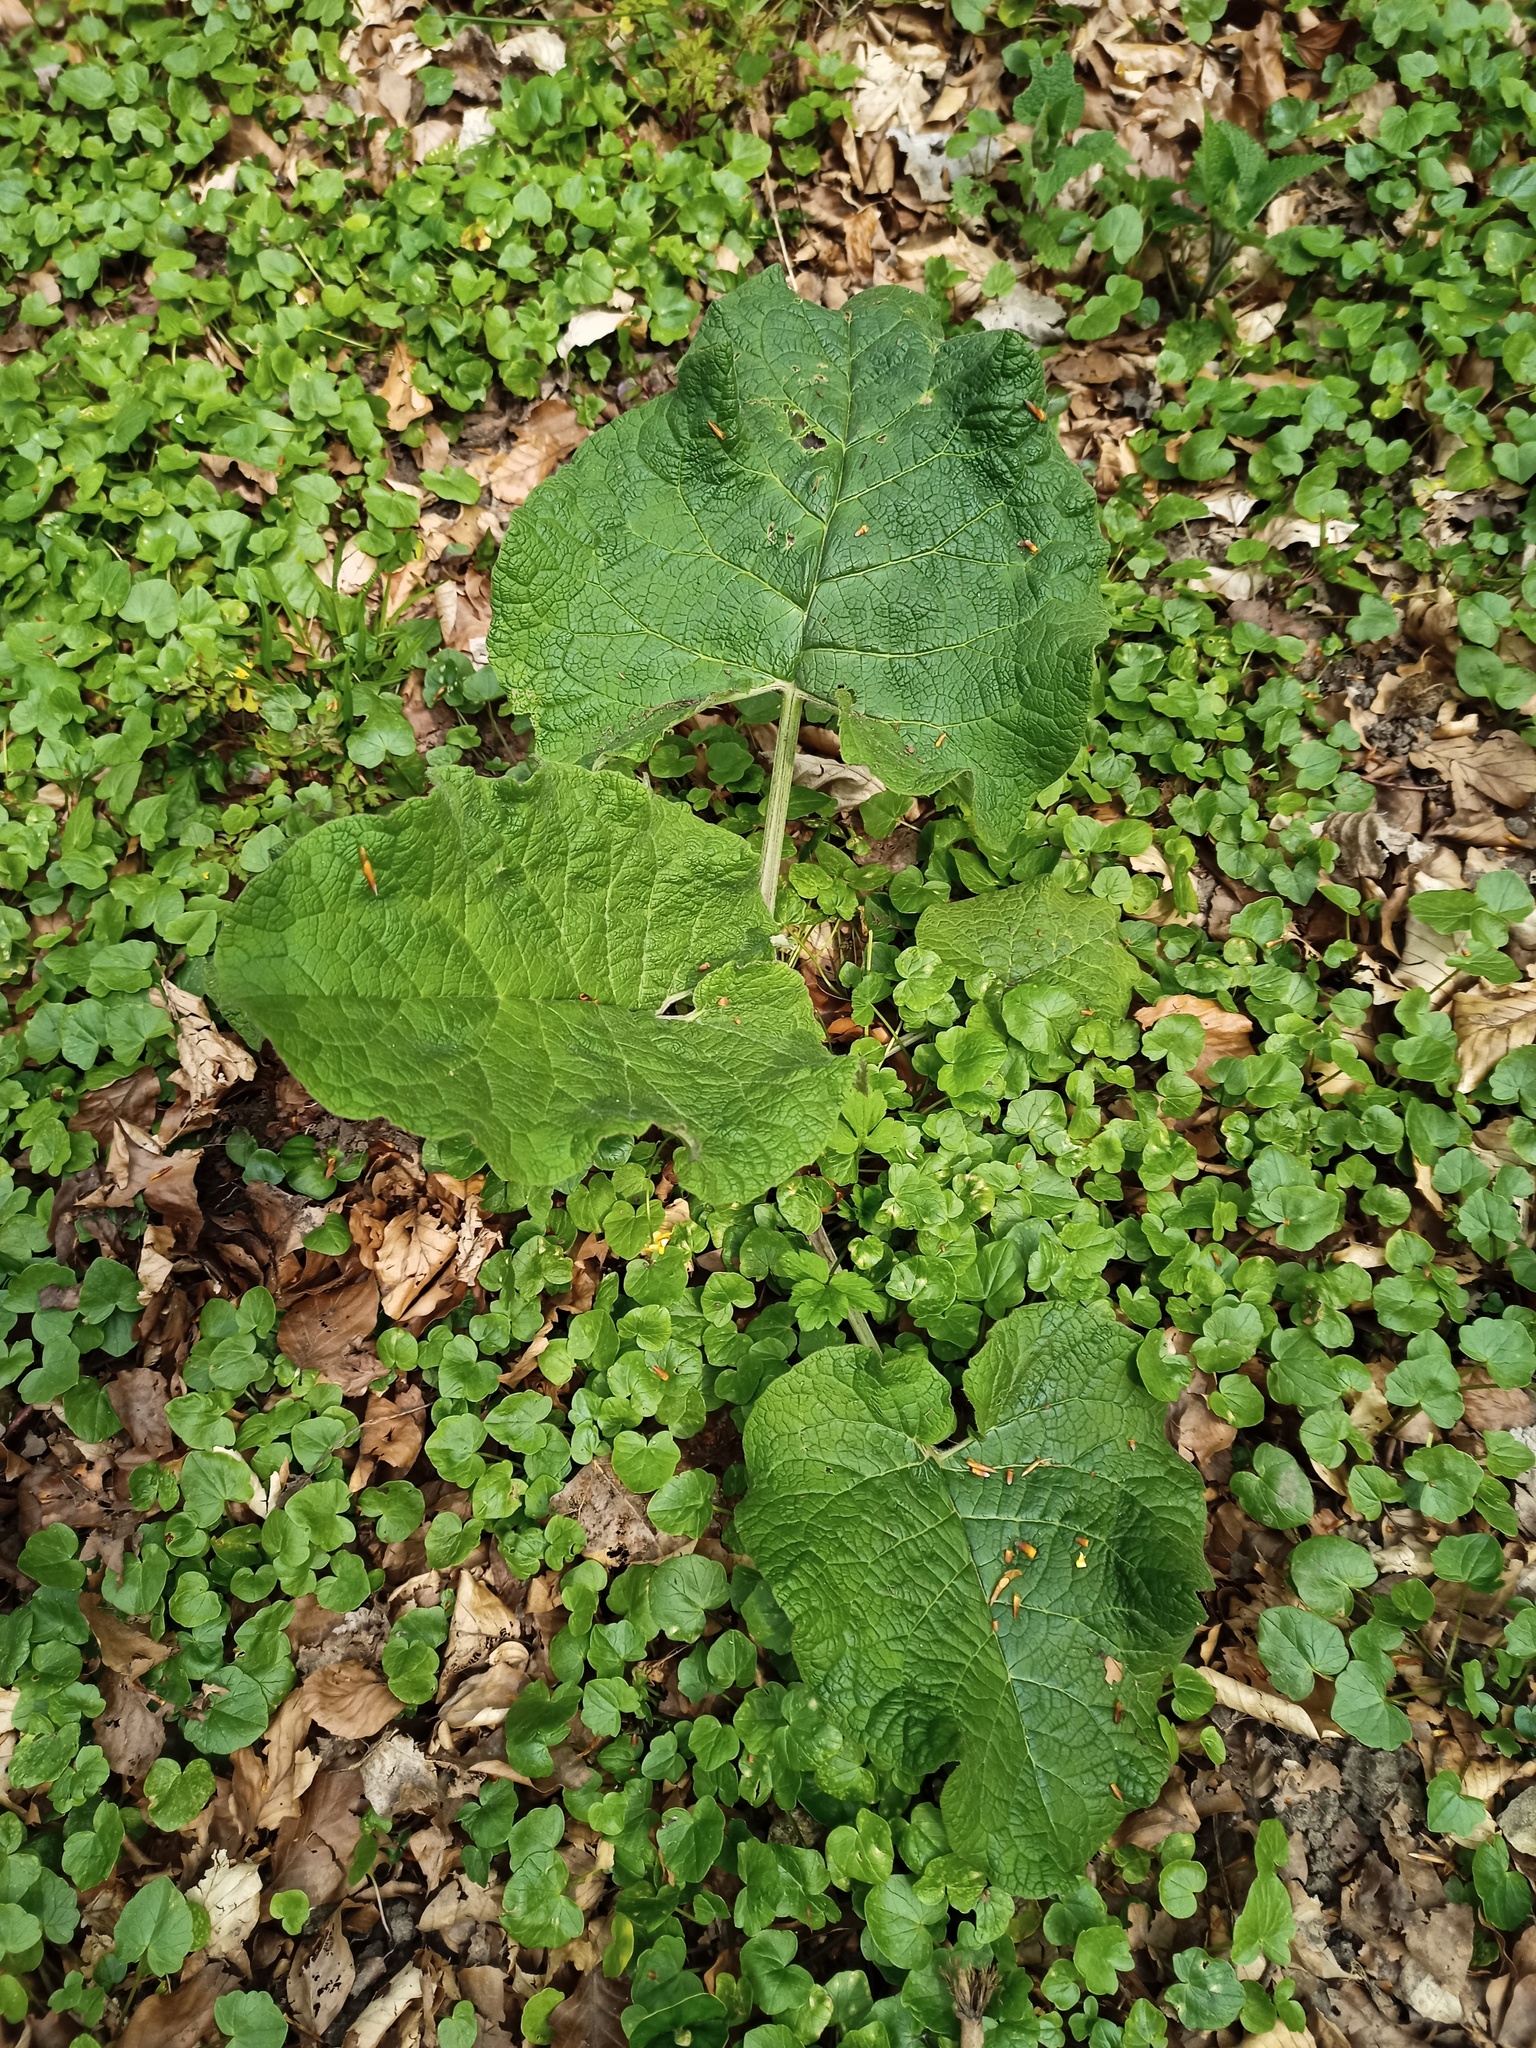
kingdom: Plantae
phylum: Tracheophyta
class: Magnoliopsida
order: Asterales
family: Asteraceae
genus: Arctium
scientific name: Arctium lappa
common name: Greater burdock
